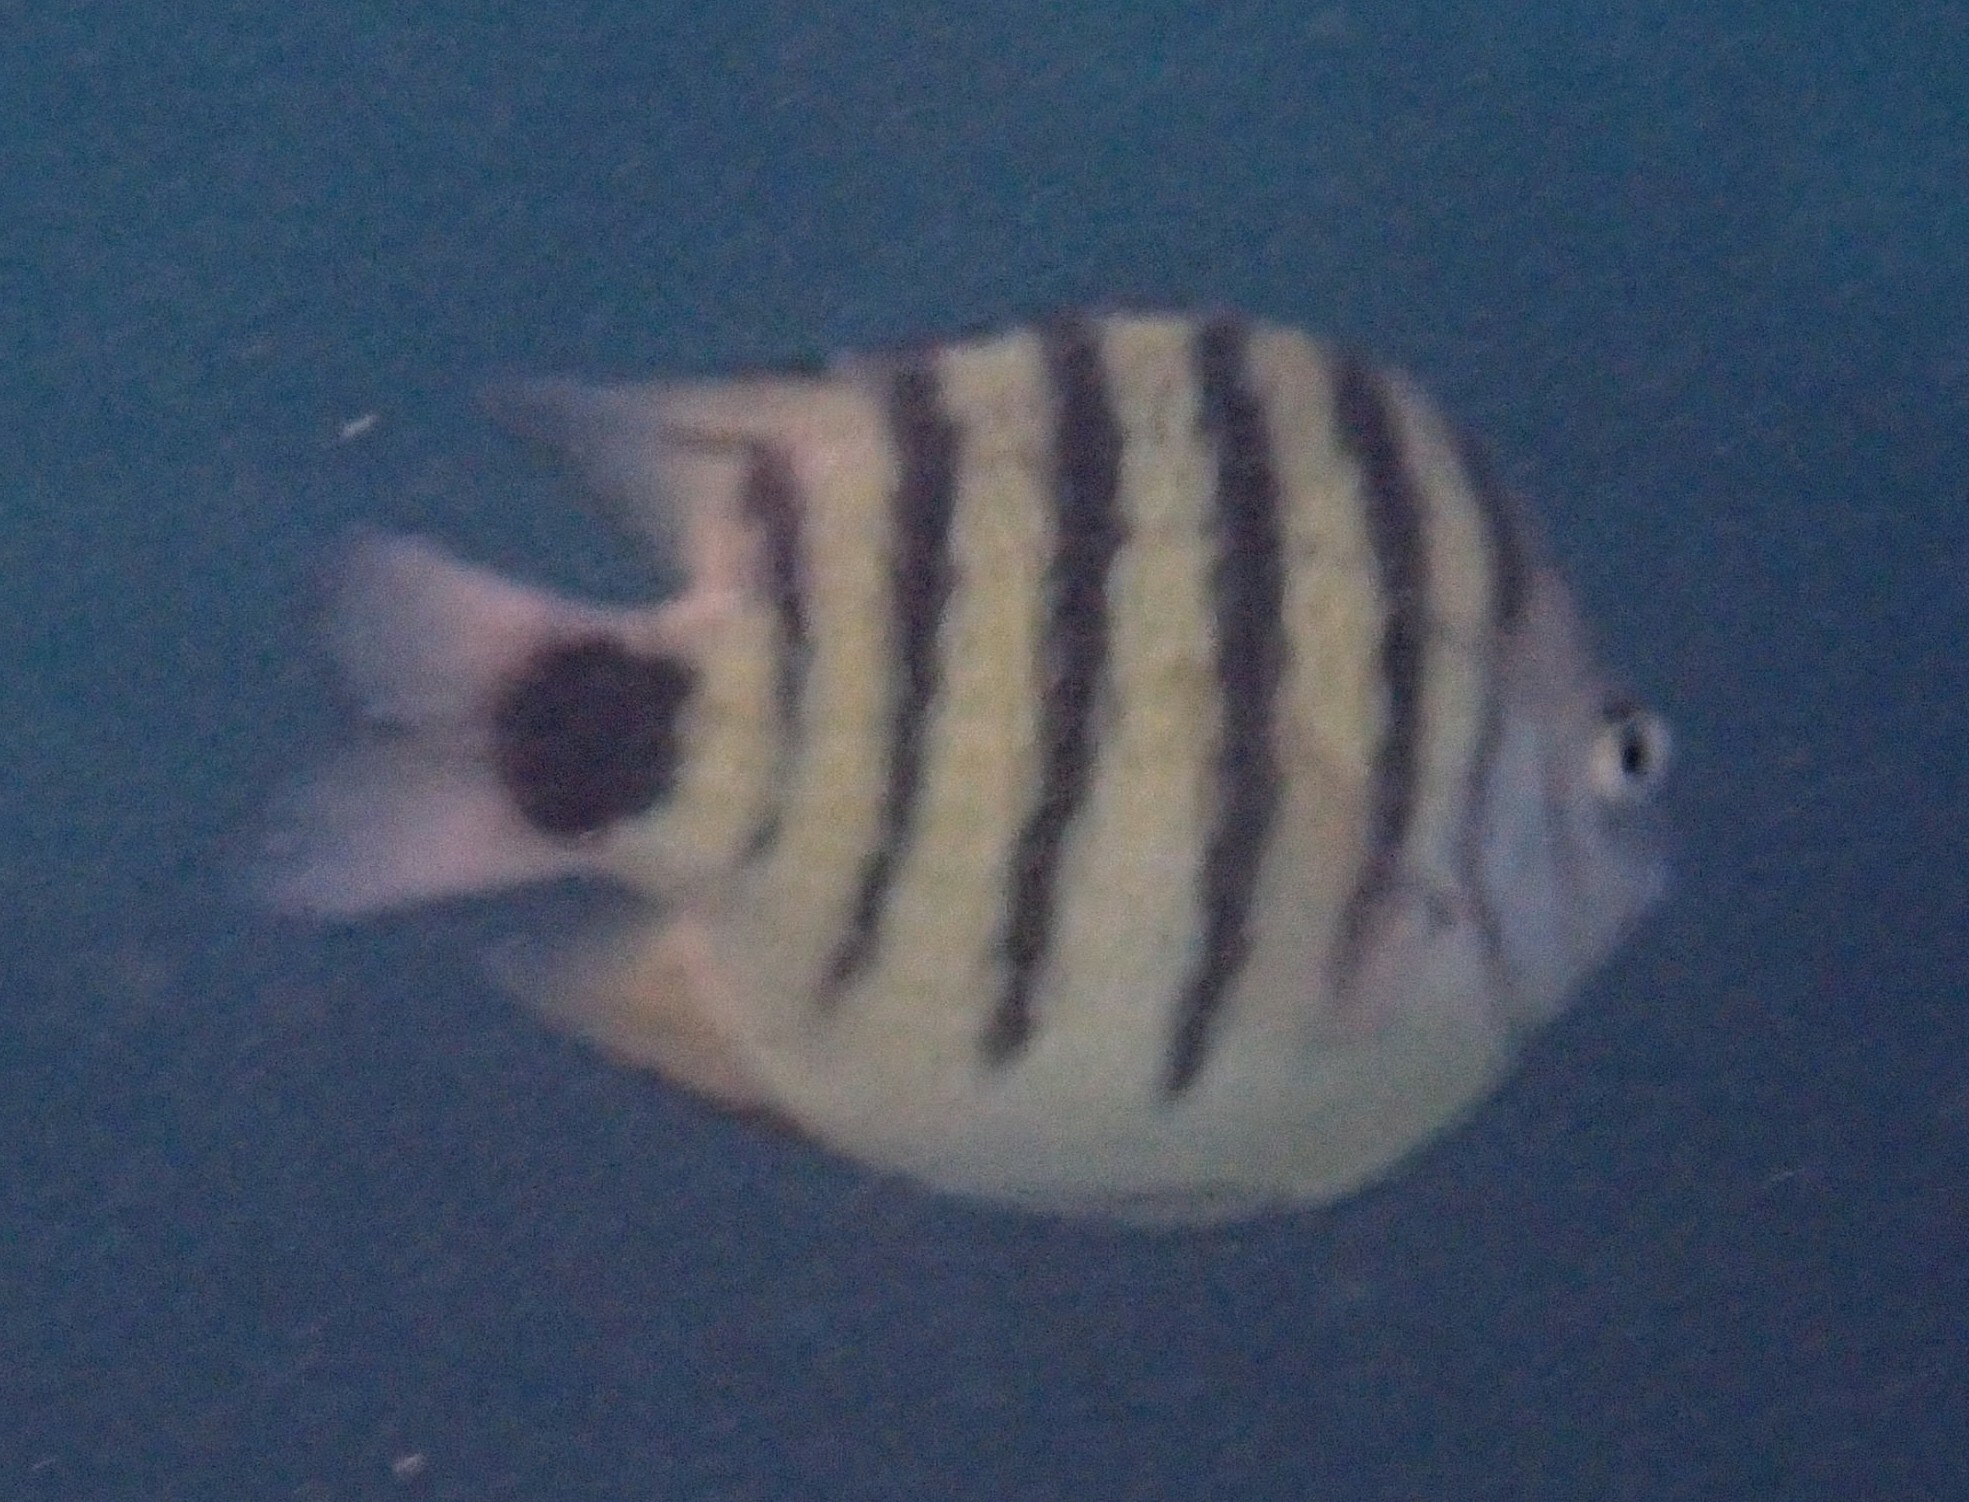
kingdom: Animalia
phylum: Chordata
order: Perciformes
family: Pomacentridae
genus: Abudefduf
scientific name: Abudefduf lorenzi
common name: Black-tail sergeant
